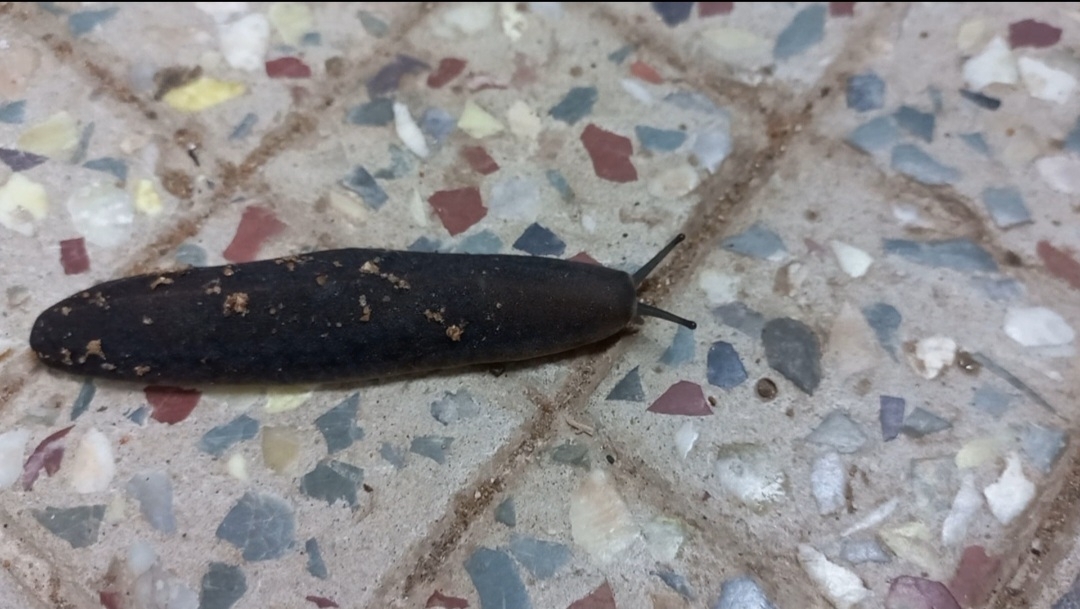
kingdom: Animalia
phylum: Mollusca
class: Gastropoda
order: Systellommatophora
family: Veronicellidae
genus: Laevicaulis
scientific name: Laevicaulis alte
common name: Tropical leatherleaf
